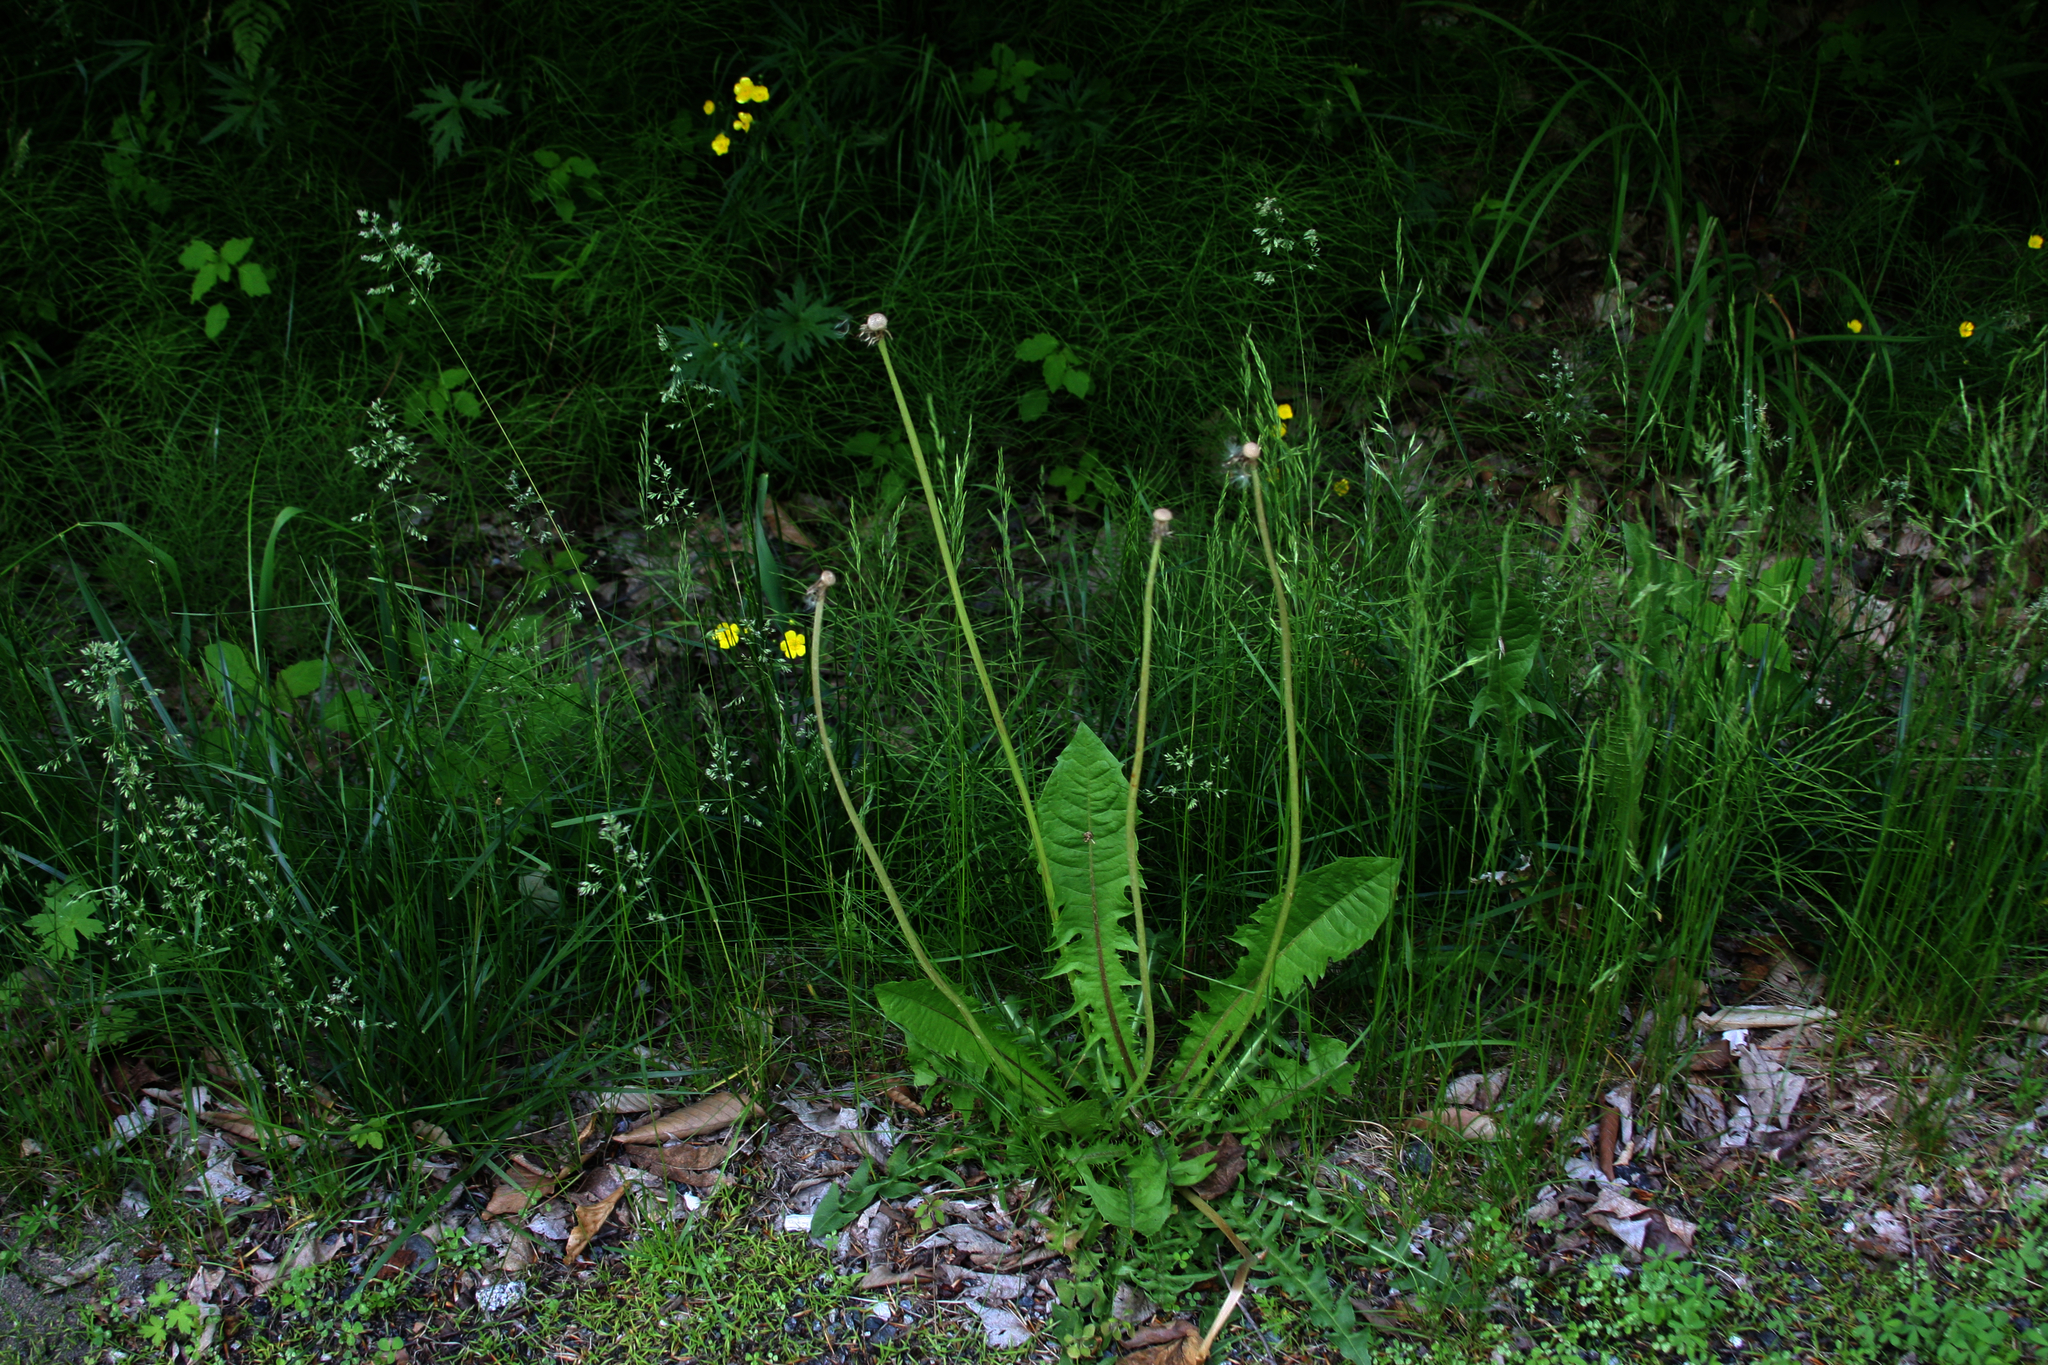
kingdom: Plantae
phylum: Tracheophyta
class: Magnoliopsida
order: Asterales
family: Asteraceae
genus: Taraxacum
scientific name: Taraxacum officinale
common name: Common dandelion
